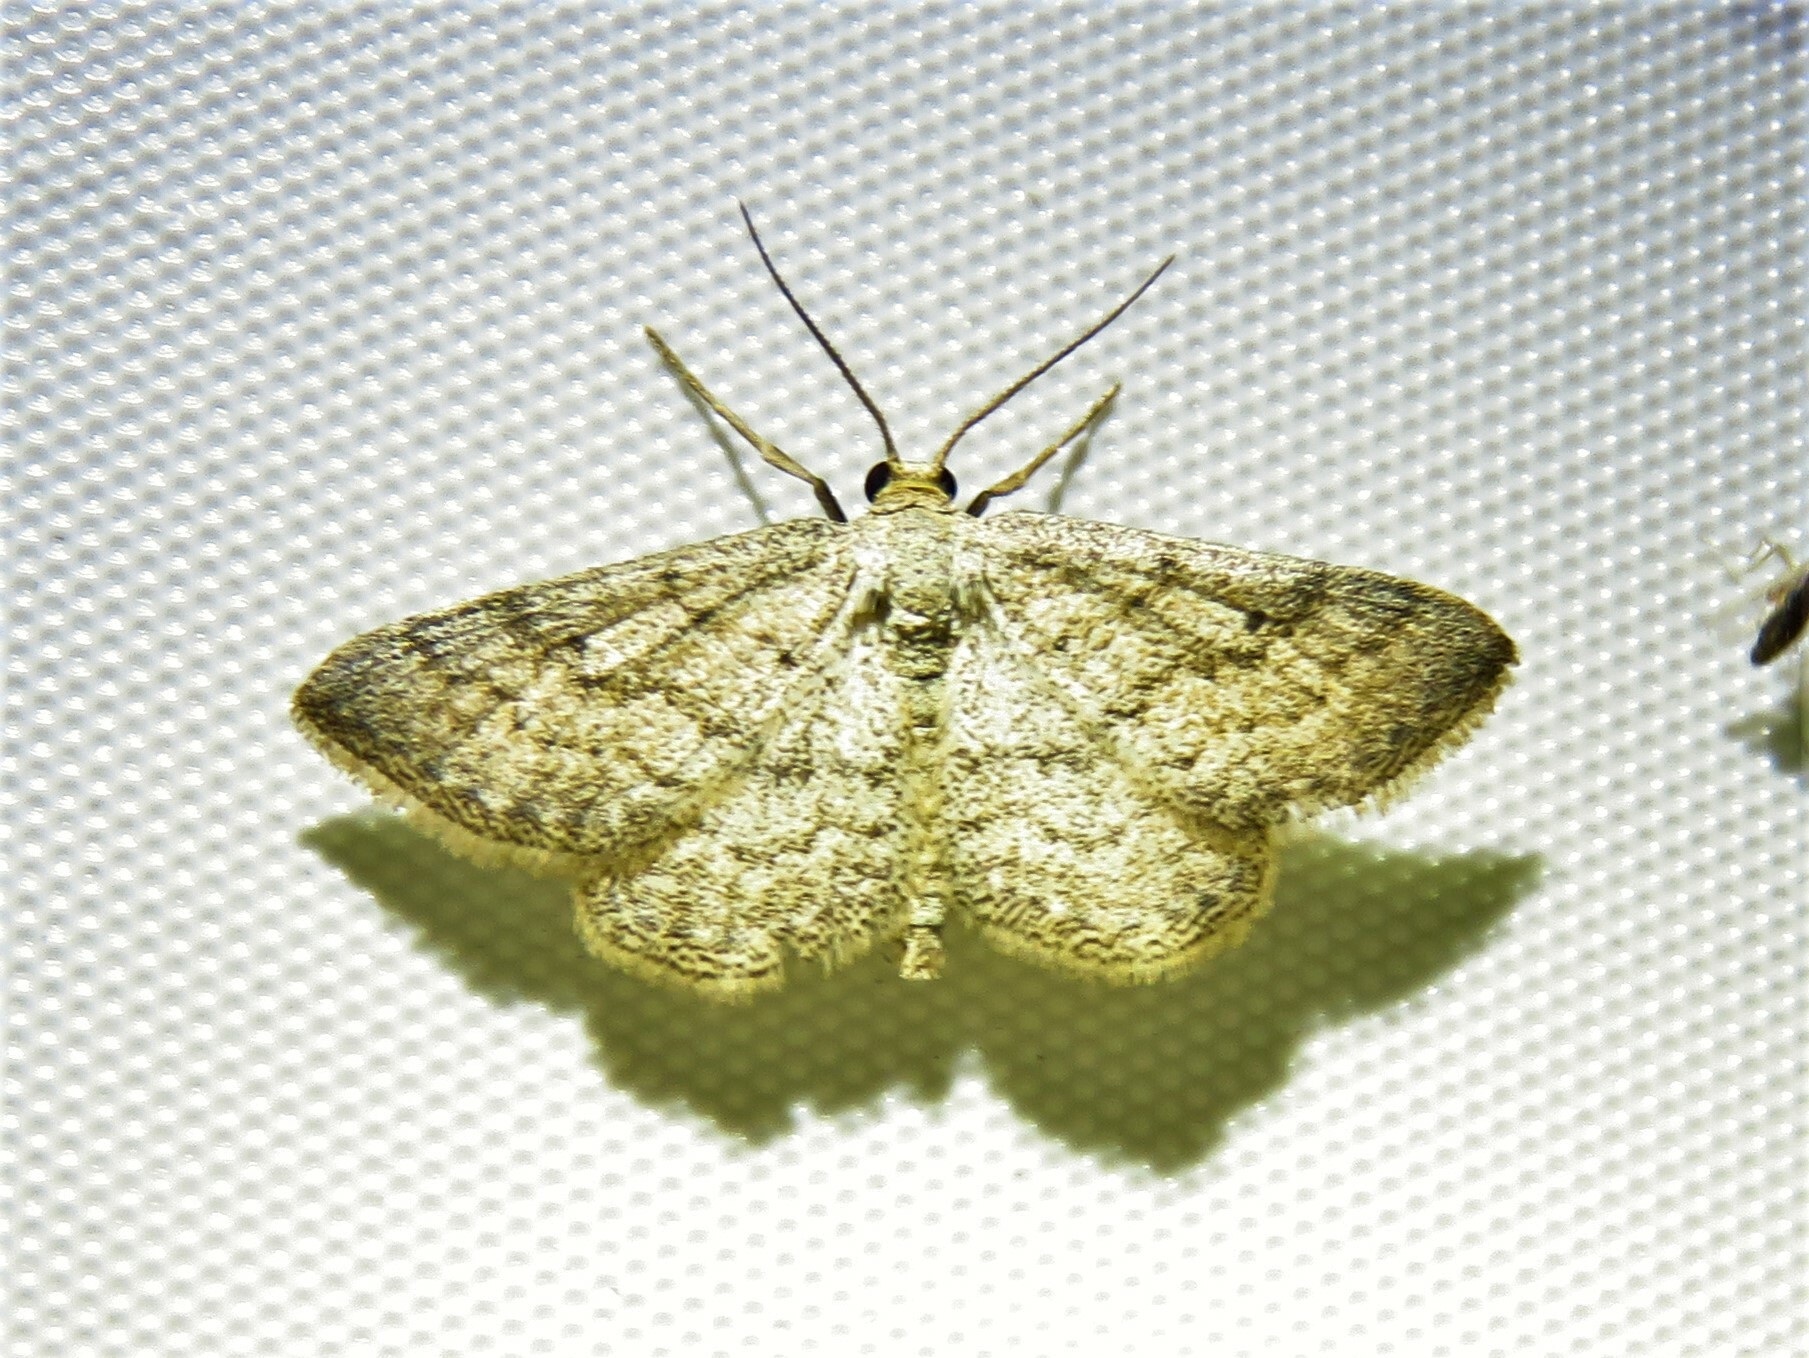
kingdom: Animalia
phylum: Arthropoda
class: Insecta
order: Lepidoptera
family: Geometridae
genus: Lobocleta
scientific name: Lobocleta ossularia
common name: Drab brown wave
